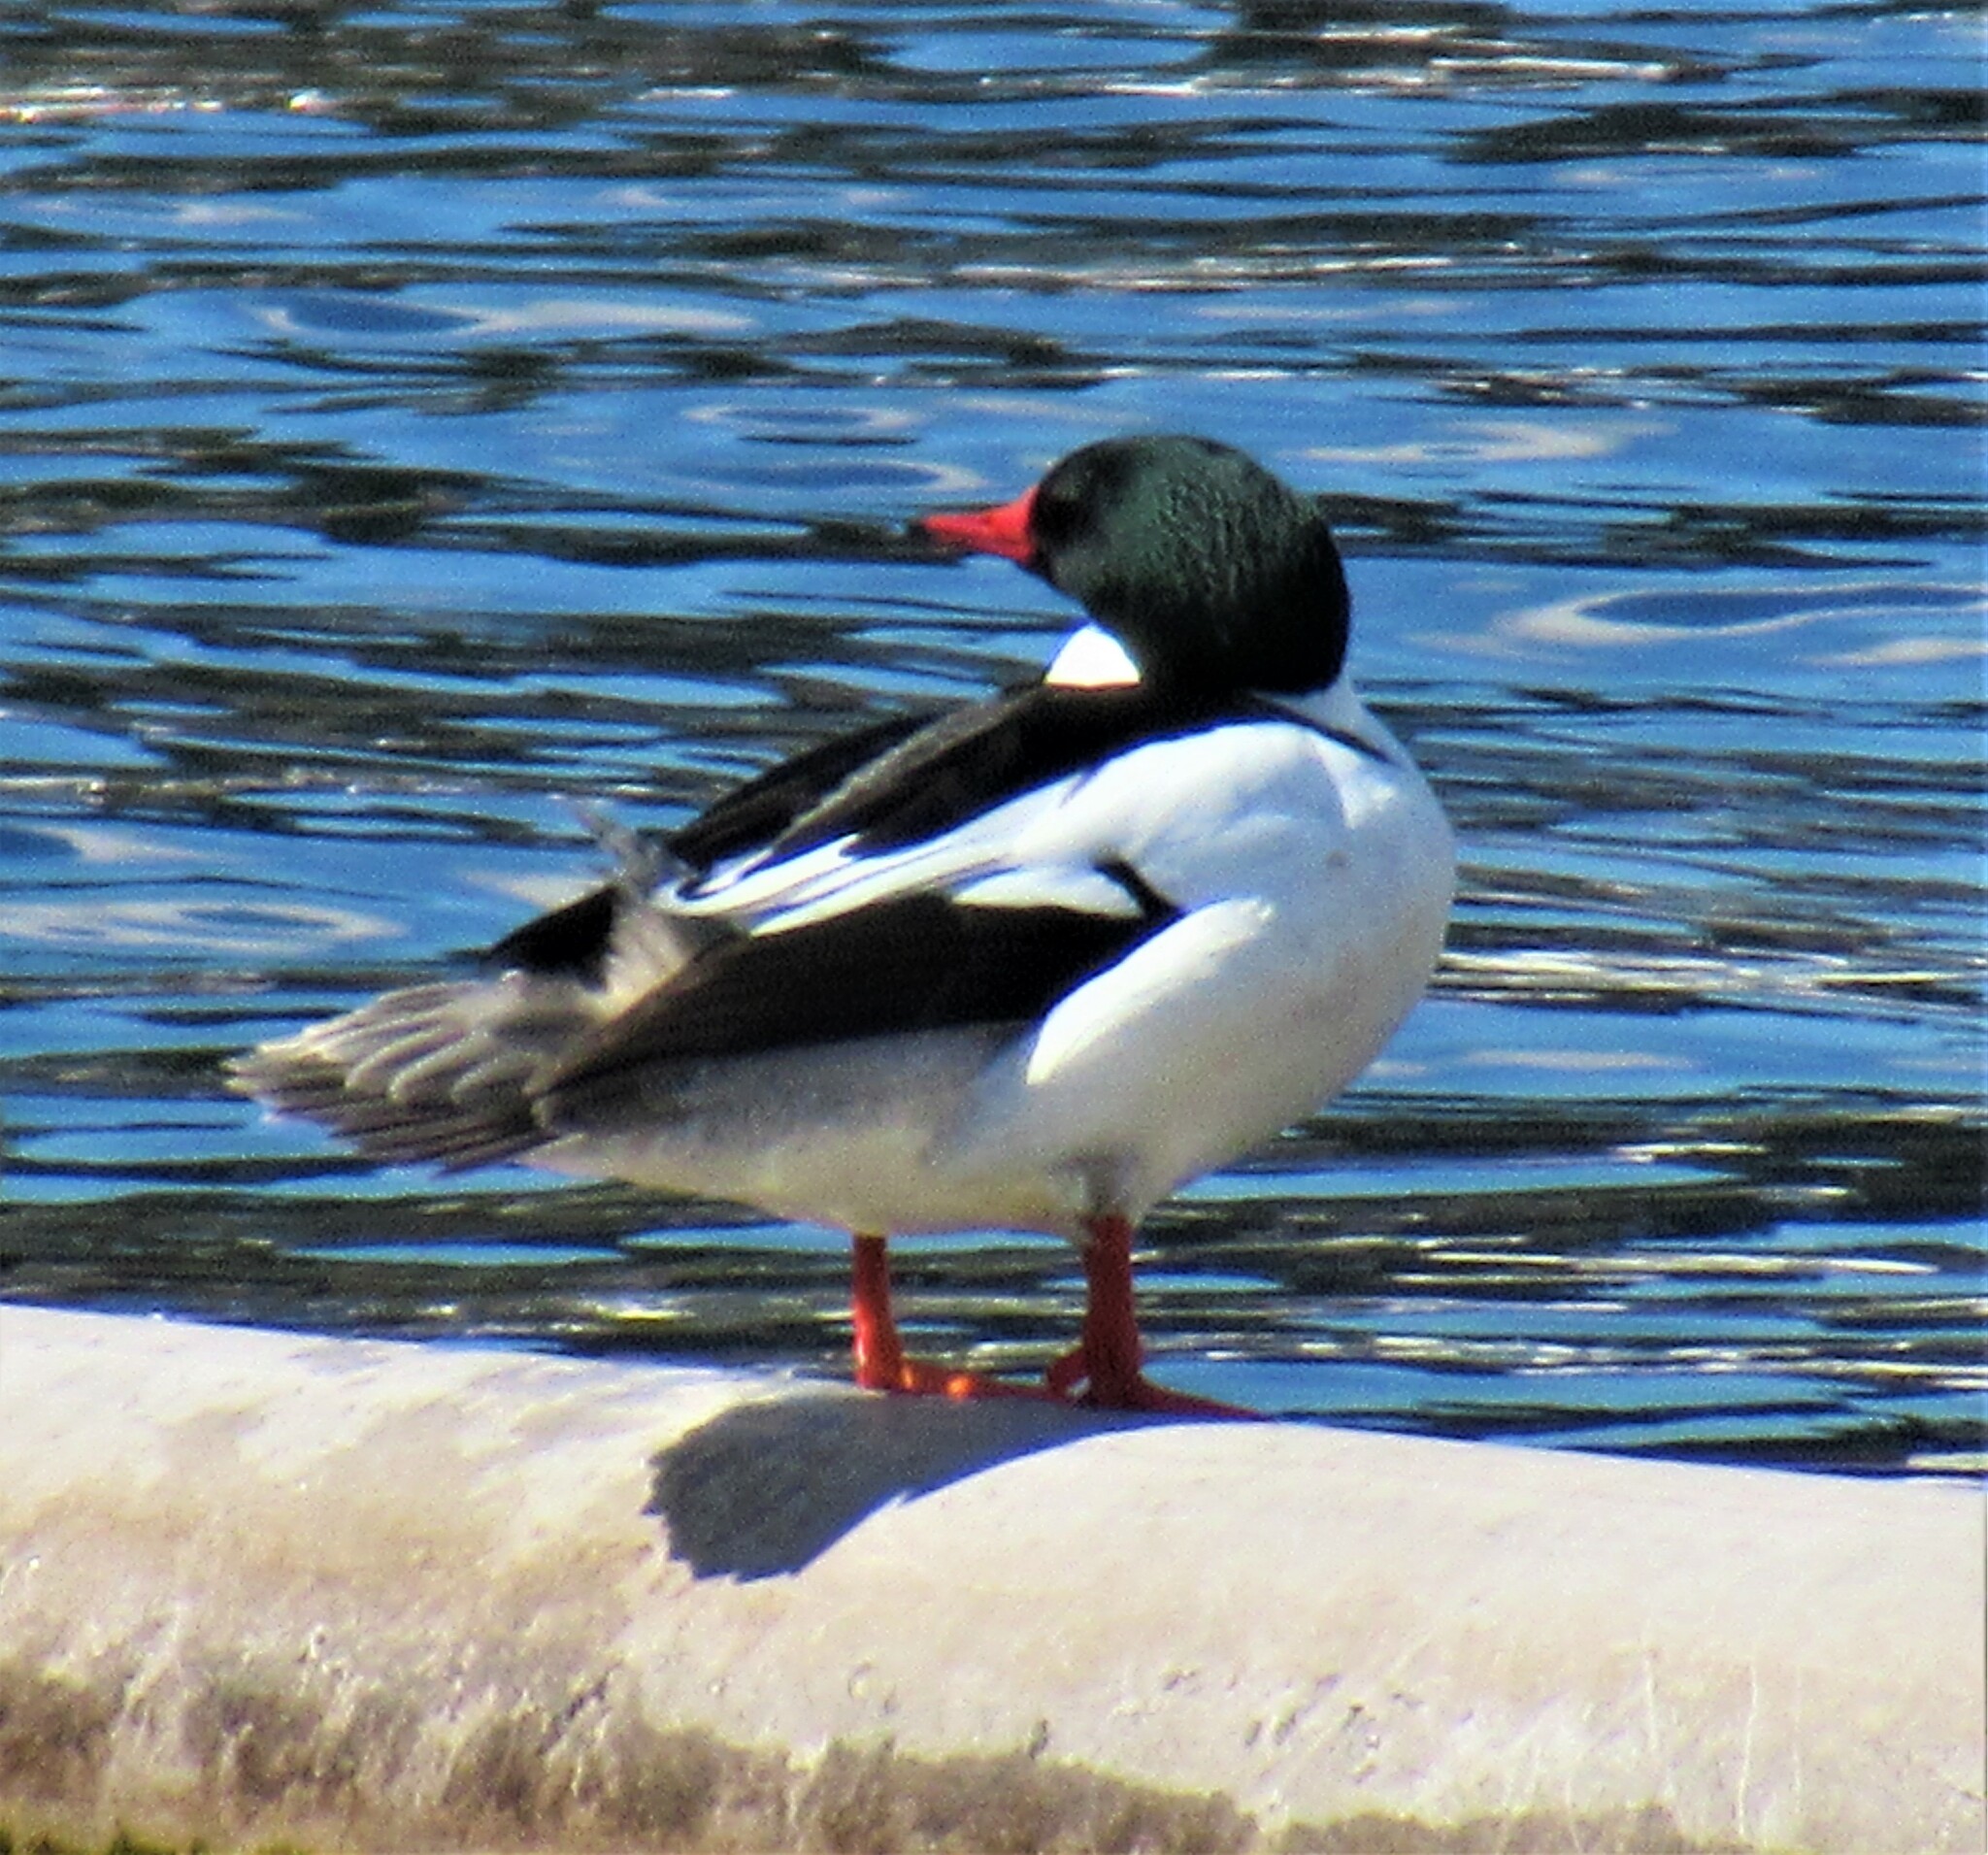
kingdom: Animalia
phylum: Chordata
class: Aves
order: Anseriformes
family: Anatidae
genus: Mergus
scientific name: Mergus merganser
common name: Common merganser
